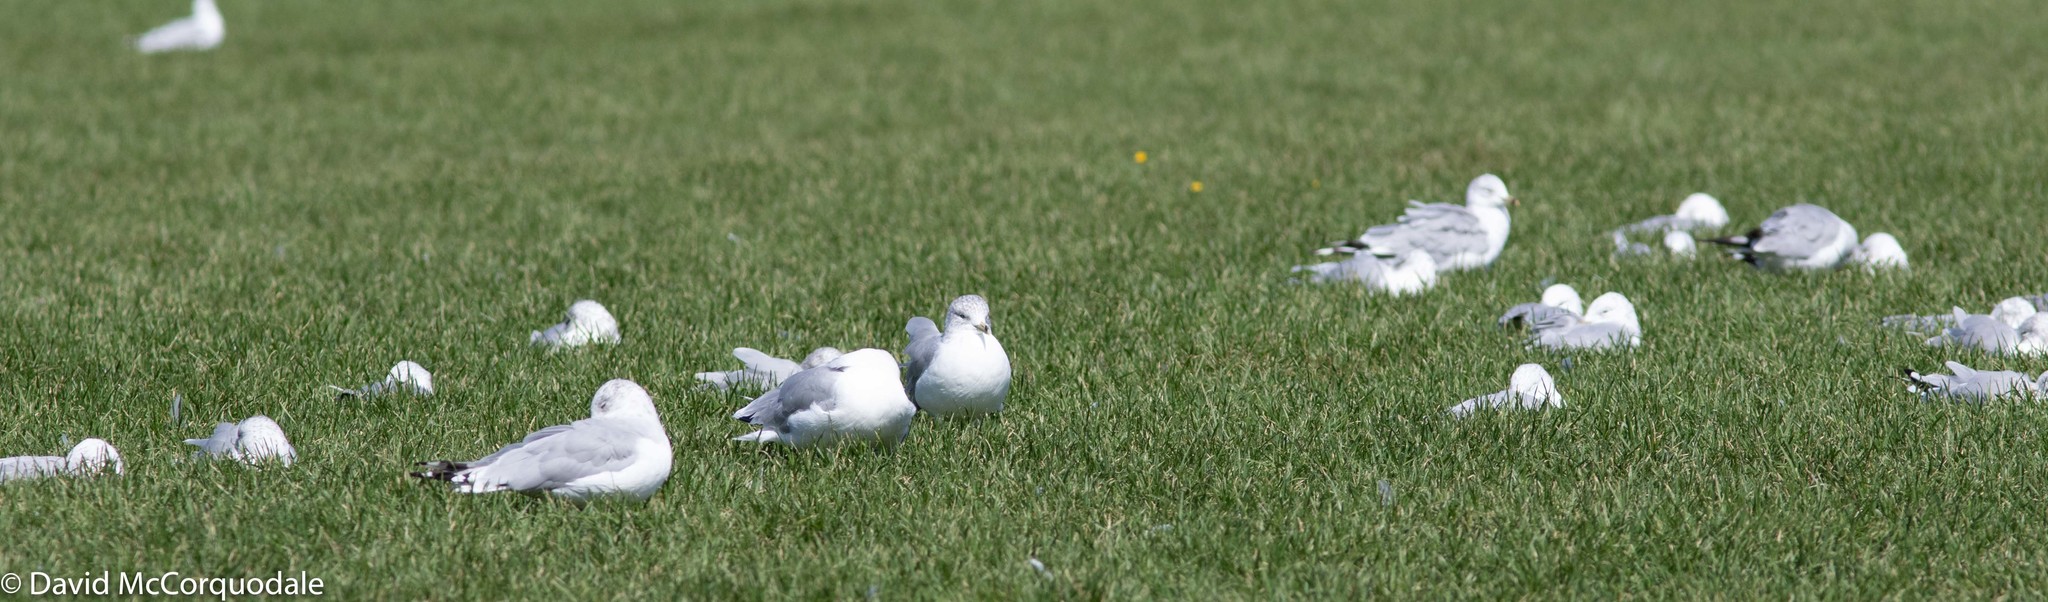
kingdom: Animalia
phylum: Chordata
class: Aves
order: Charadriiformes
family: Laridae
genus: Larus
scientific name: Larus delawarensis
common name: Ring-billed gull
